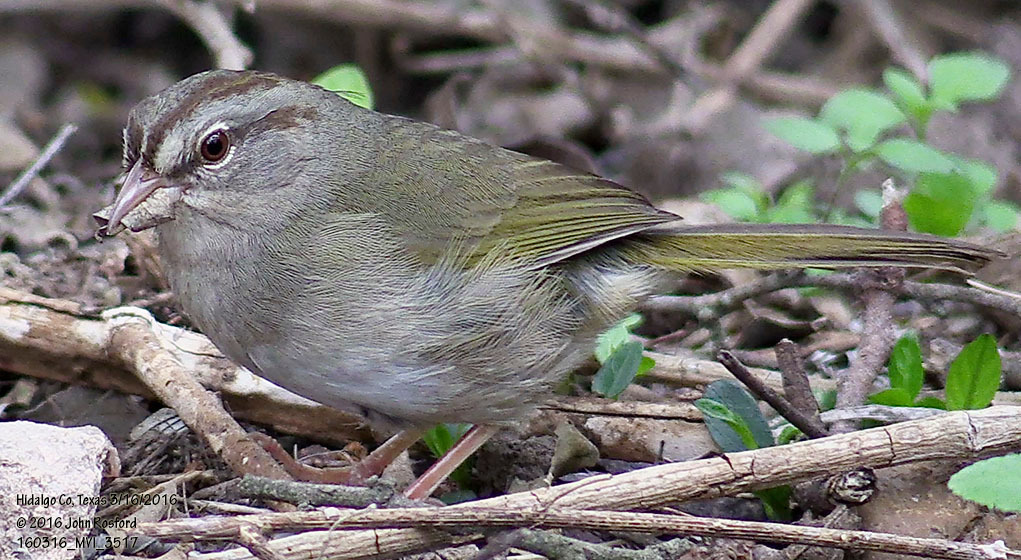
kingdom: Animalia
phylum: Chordata
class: Aves
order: Passeriformes
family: Passerellidae
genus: Arremonops
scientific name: Arremonops rufivirgatus
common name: Olive sparrow
